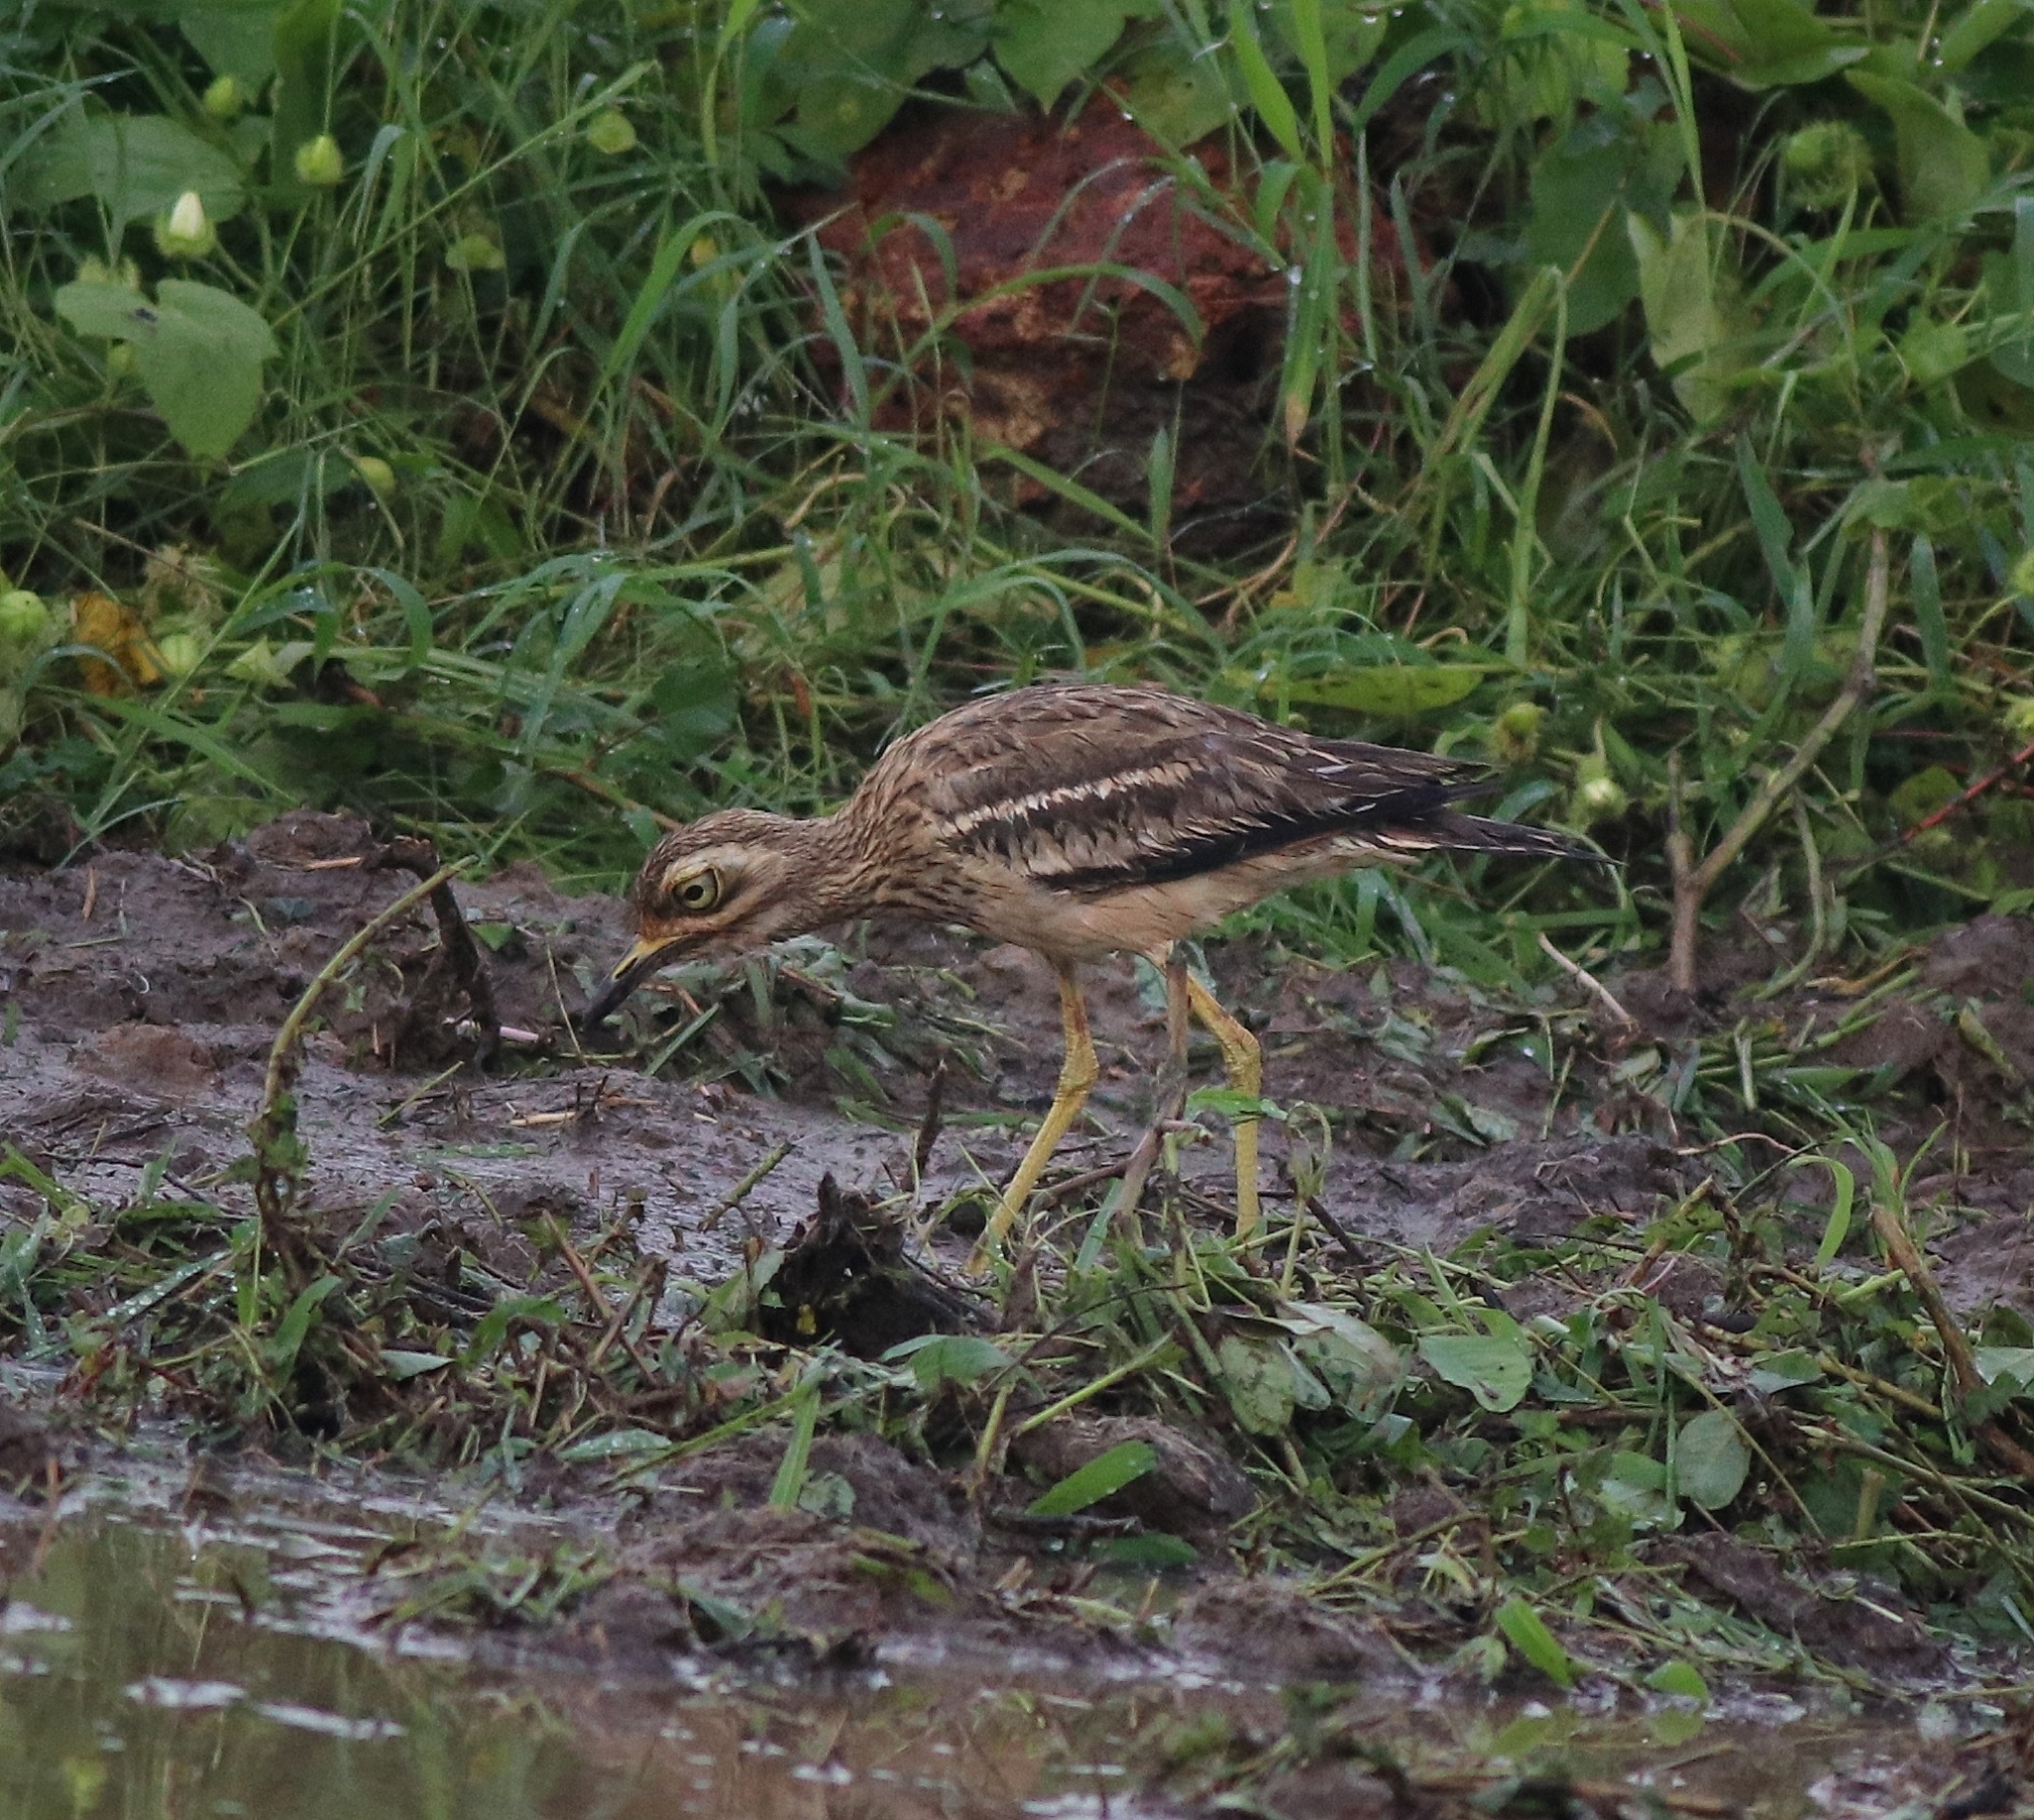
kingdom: Animalia
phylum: Chordata
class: Aves
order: Charadriiformes
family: Burhinidae
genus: Burhinus
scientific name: Burhinus indicus
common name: Indian thick-knee
